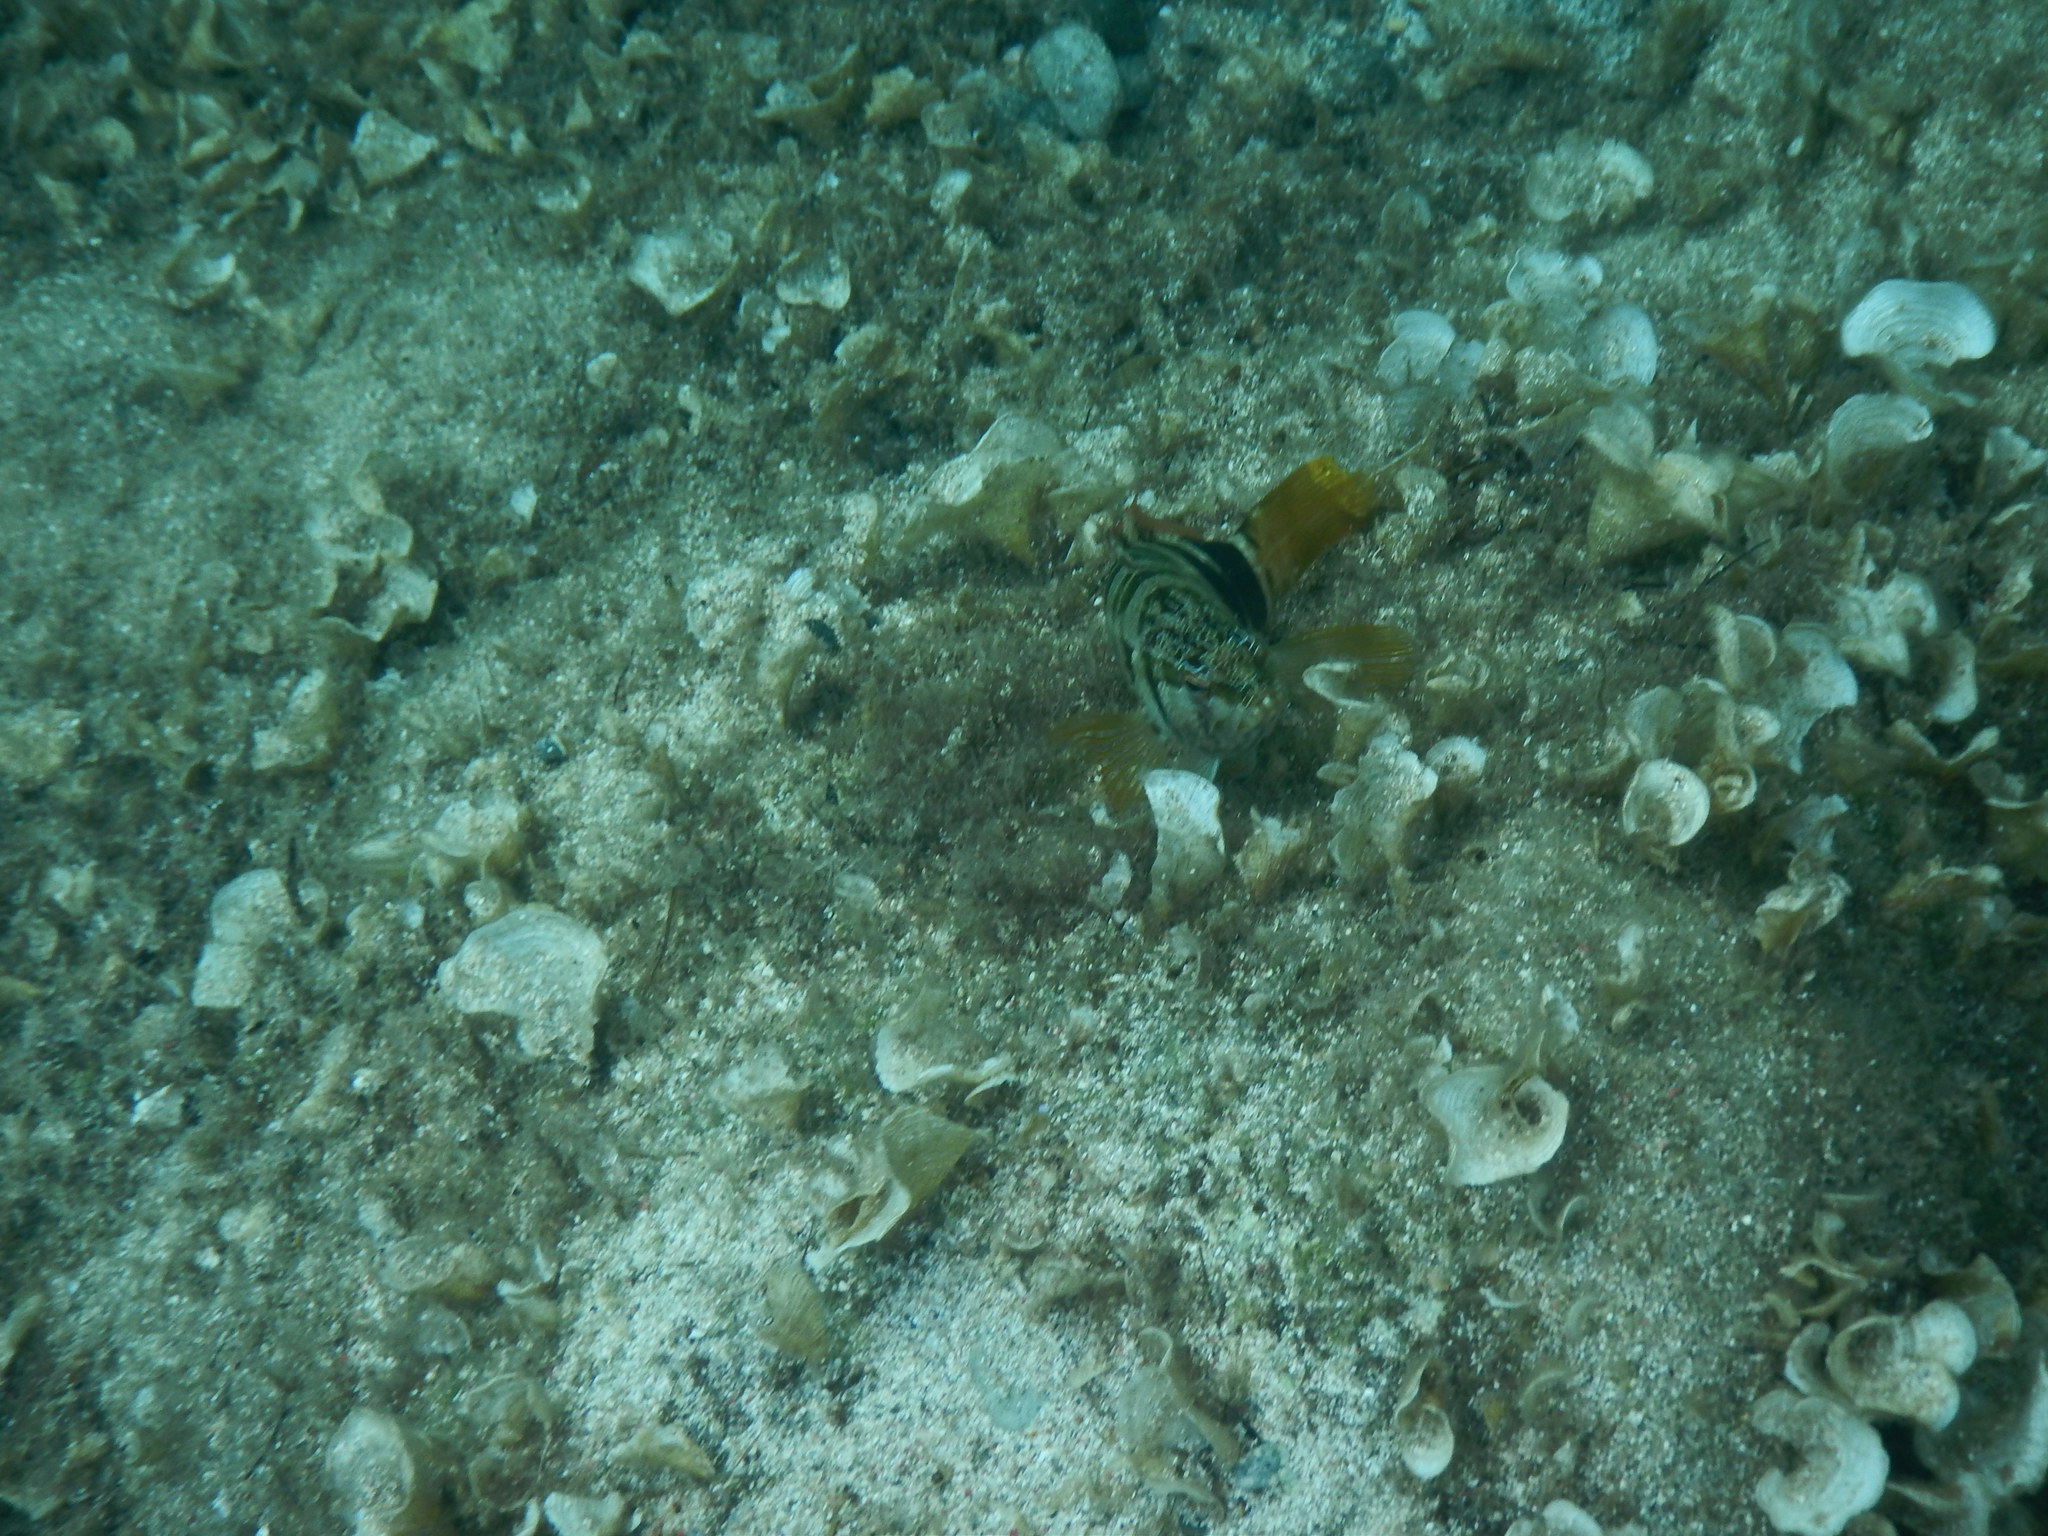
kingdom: Animalia
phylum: Chordata
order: Perciformes
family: Serranidae
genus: Serranus
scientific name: Serranus scriba
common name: Painted comber
